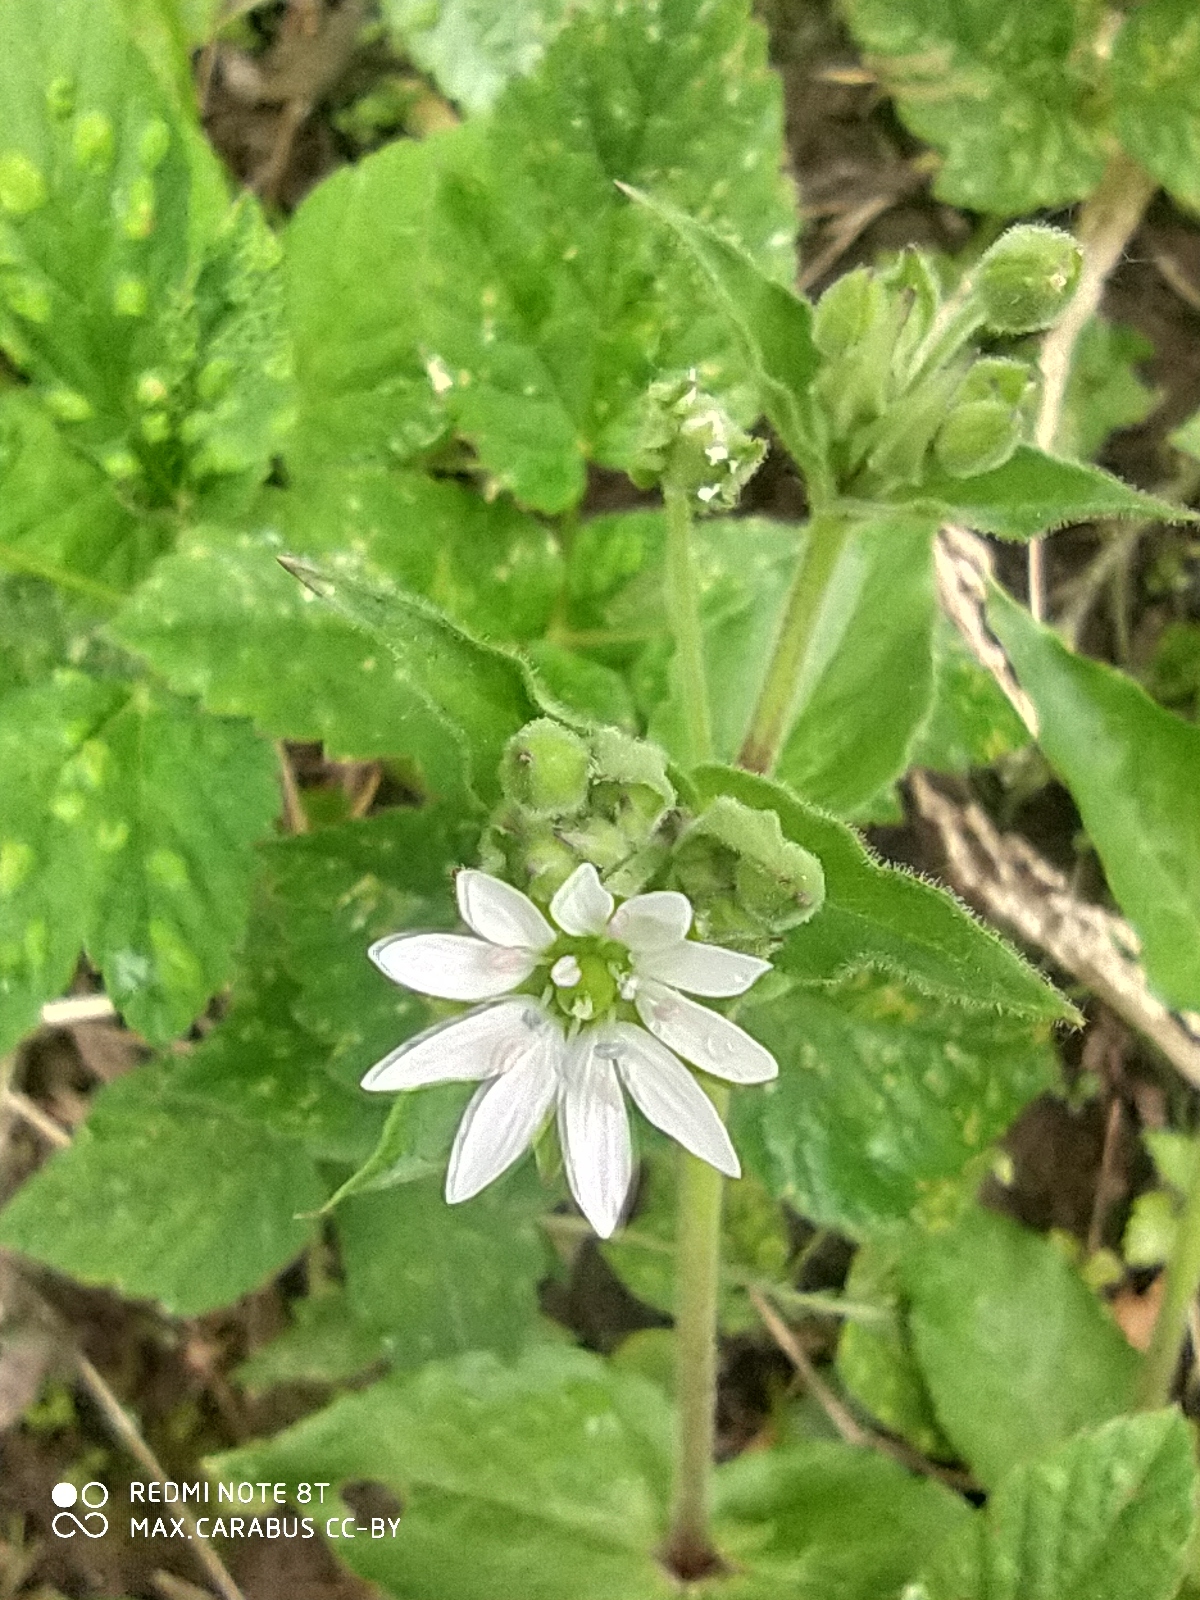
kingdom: Plantae
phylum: Tracheophyta
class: Magnoliopsida
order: Caryophyllales
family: Caryophyllaceae
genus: Stellaria
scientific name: Stellaria aquatica
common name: Water chickweed
